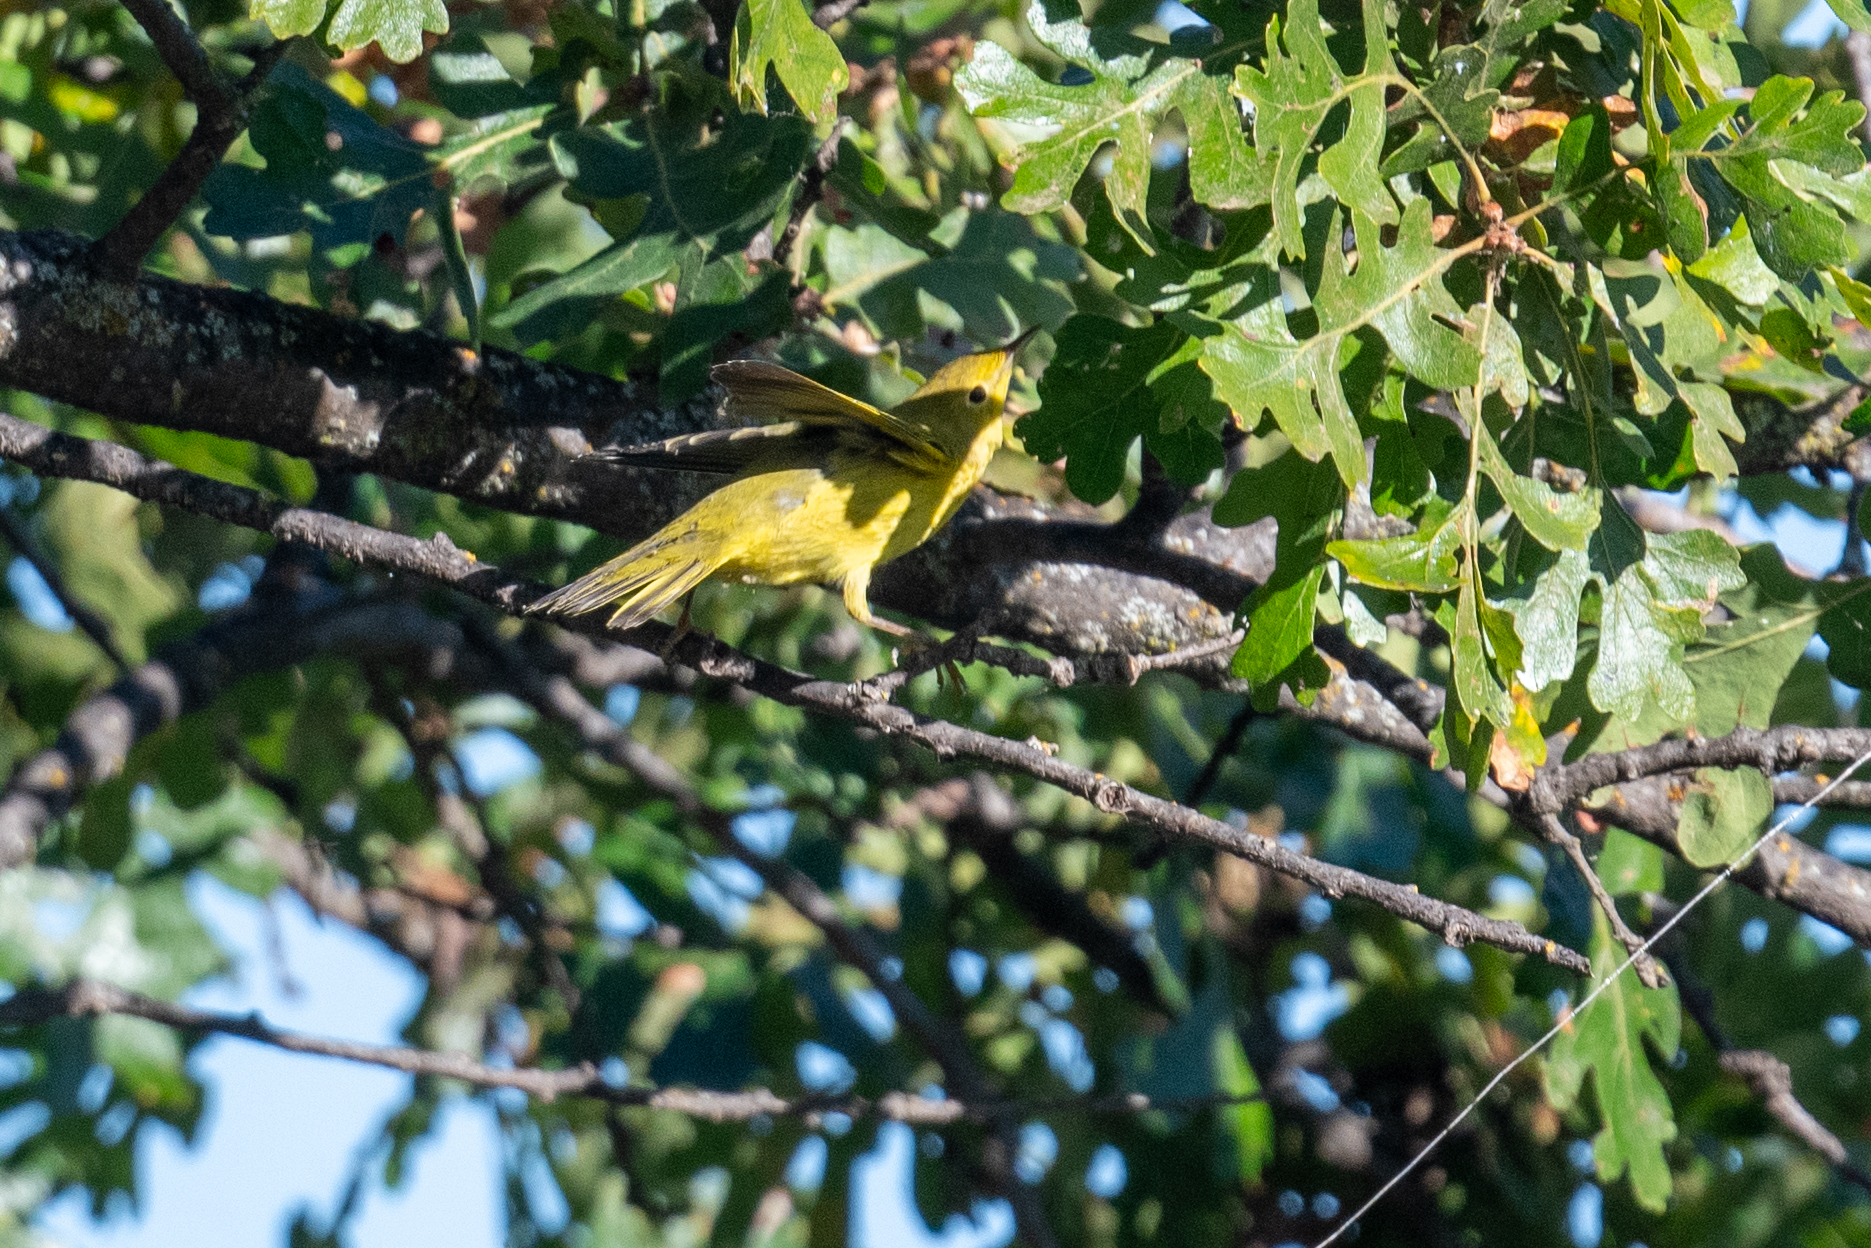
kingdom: Animalia
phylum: Chordata
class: Aves
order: Passeriformes
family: Parulidae
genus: Setophaga
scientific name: Setophaga petechia
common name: Yellow warbler
